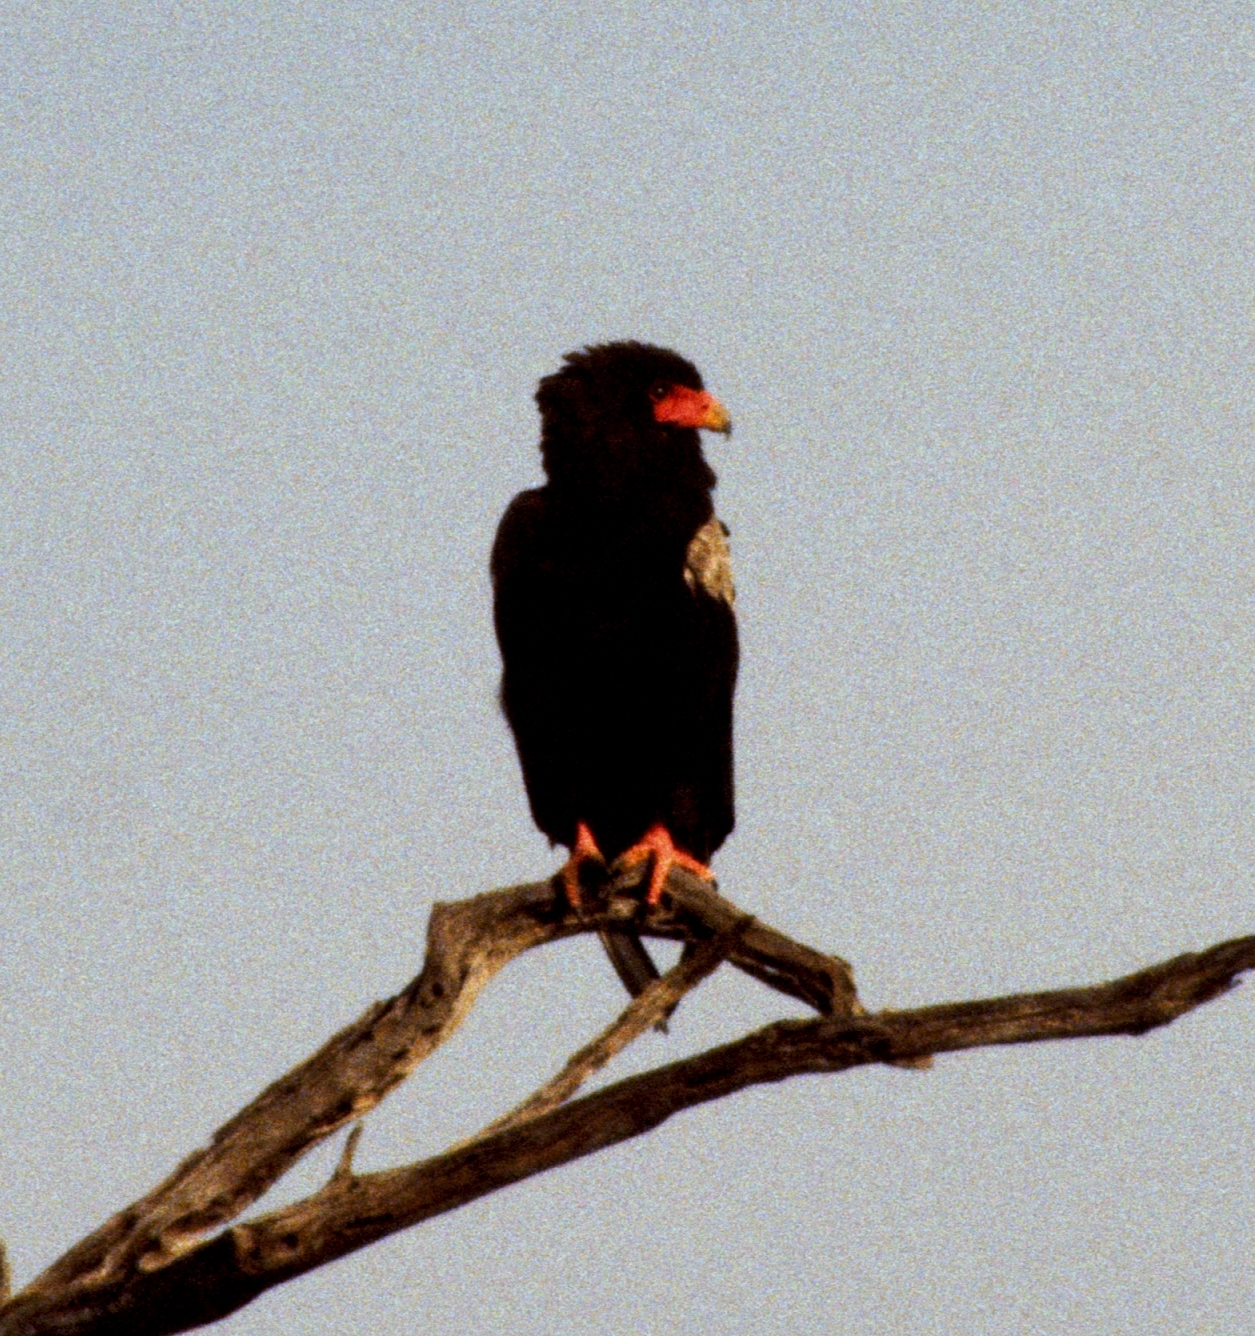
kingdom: Animalia
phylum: Chordata
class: Aves
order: Accipitriformes
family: Accipitridae
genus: Terathopius
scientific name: Terathopius ecaudatus
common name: Bateleur
